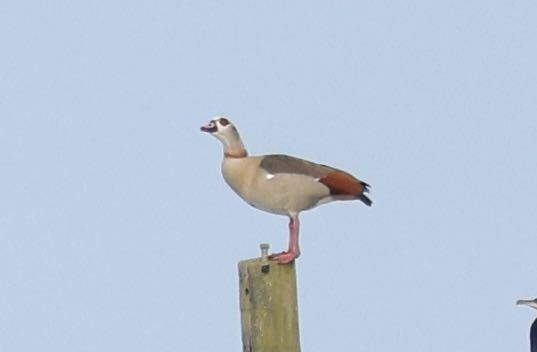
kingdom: Animalia
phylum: Chordata
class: Aves
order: Anseriformes
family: Anatidae
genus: Alopochen
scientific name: Alopochen aegyptiaca
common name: Egyptian goose
